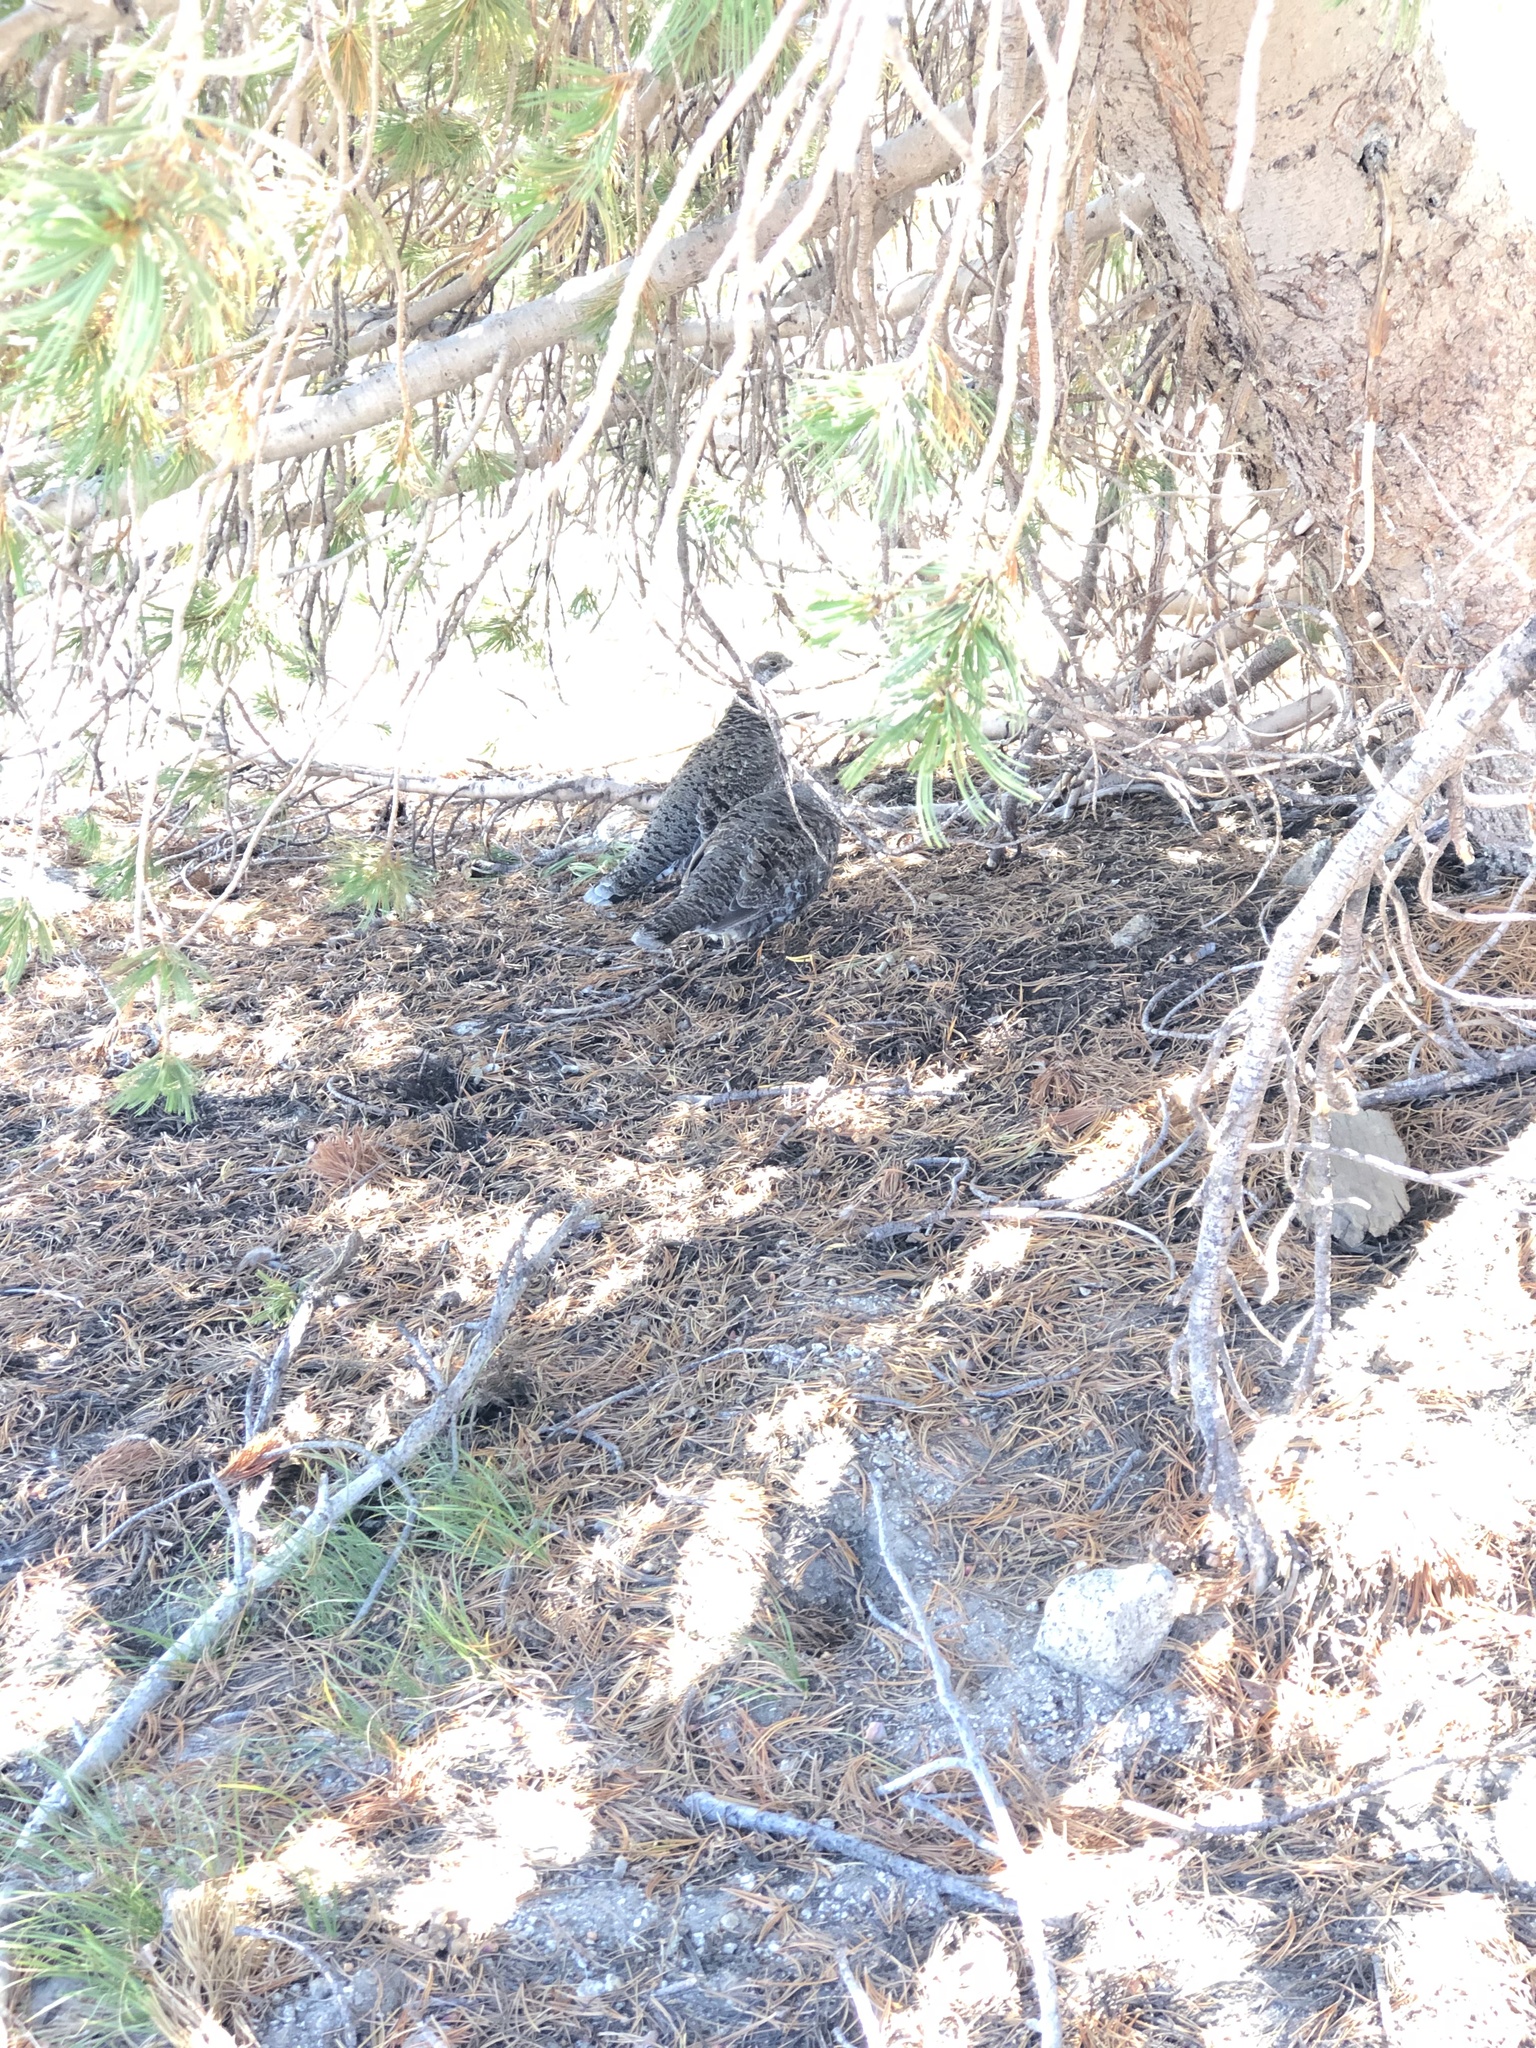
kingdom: Animalia
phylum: Chordata
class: Aves
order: Galliformes
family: Phasianidae
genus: Dendragapus
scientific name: Dendragapus fuliginosus
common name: Sooty grouse
